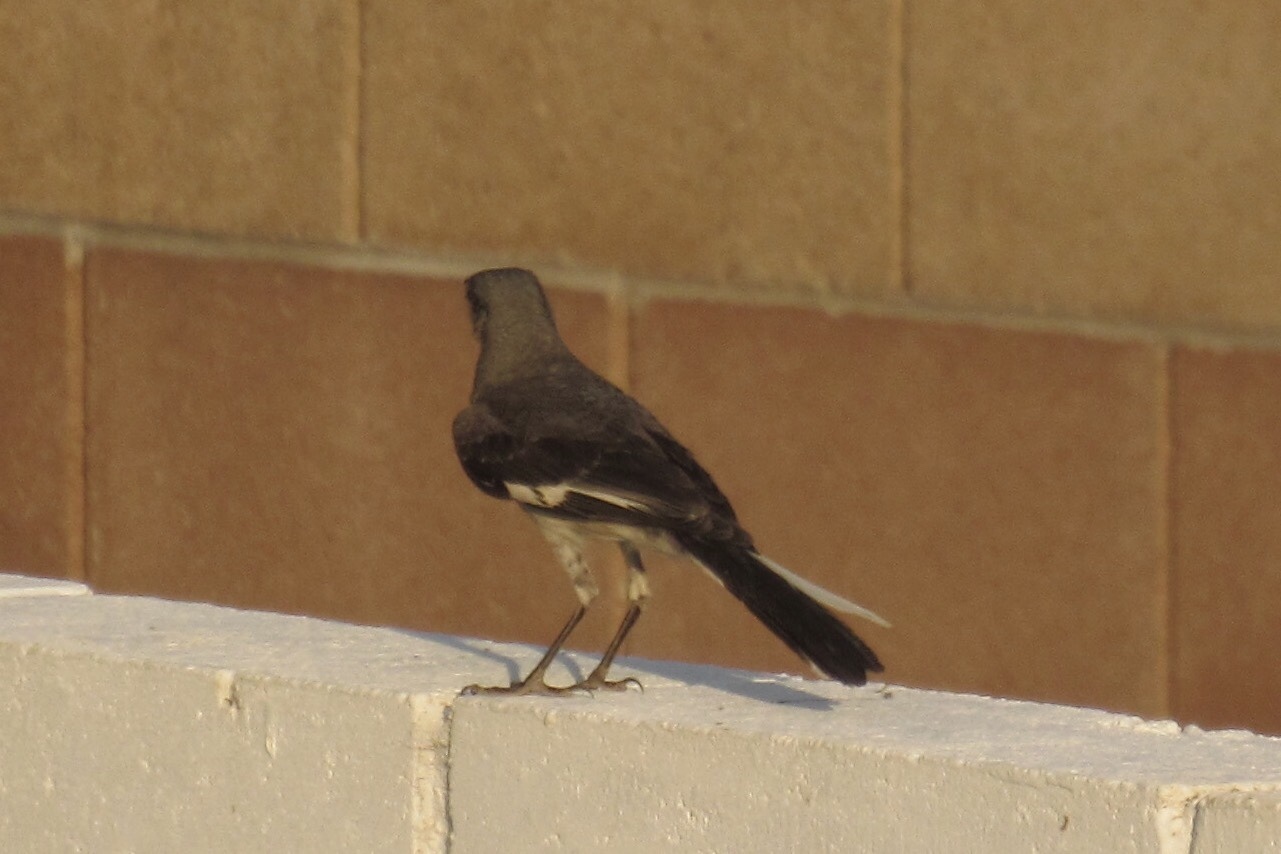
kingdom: Animalia
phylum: Chordata
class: Aves
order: Passeriformes
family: Mimidae
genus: Mimus
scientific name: Mimus polyglottos
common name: Northern mockingbird
